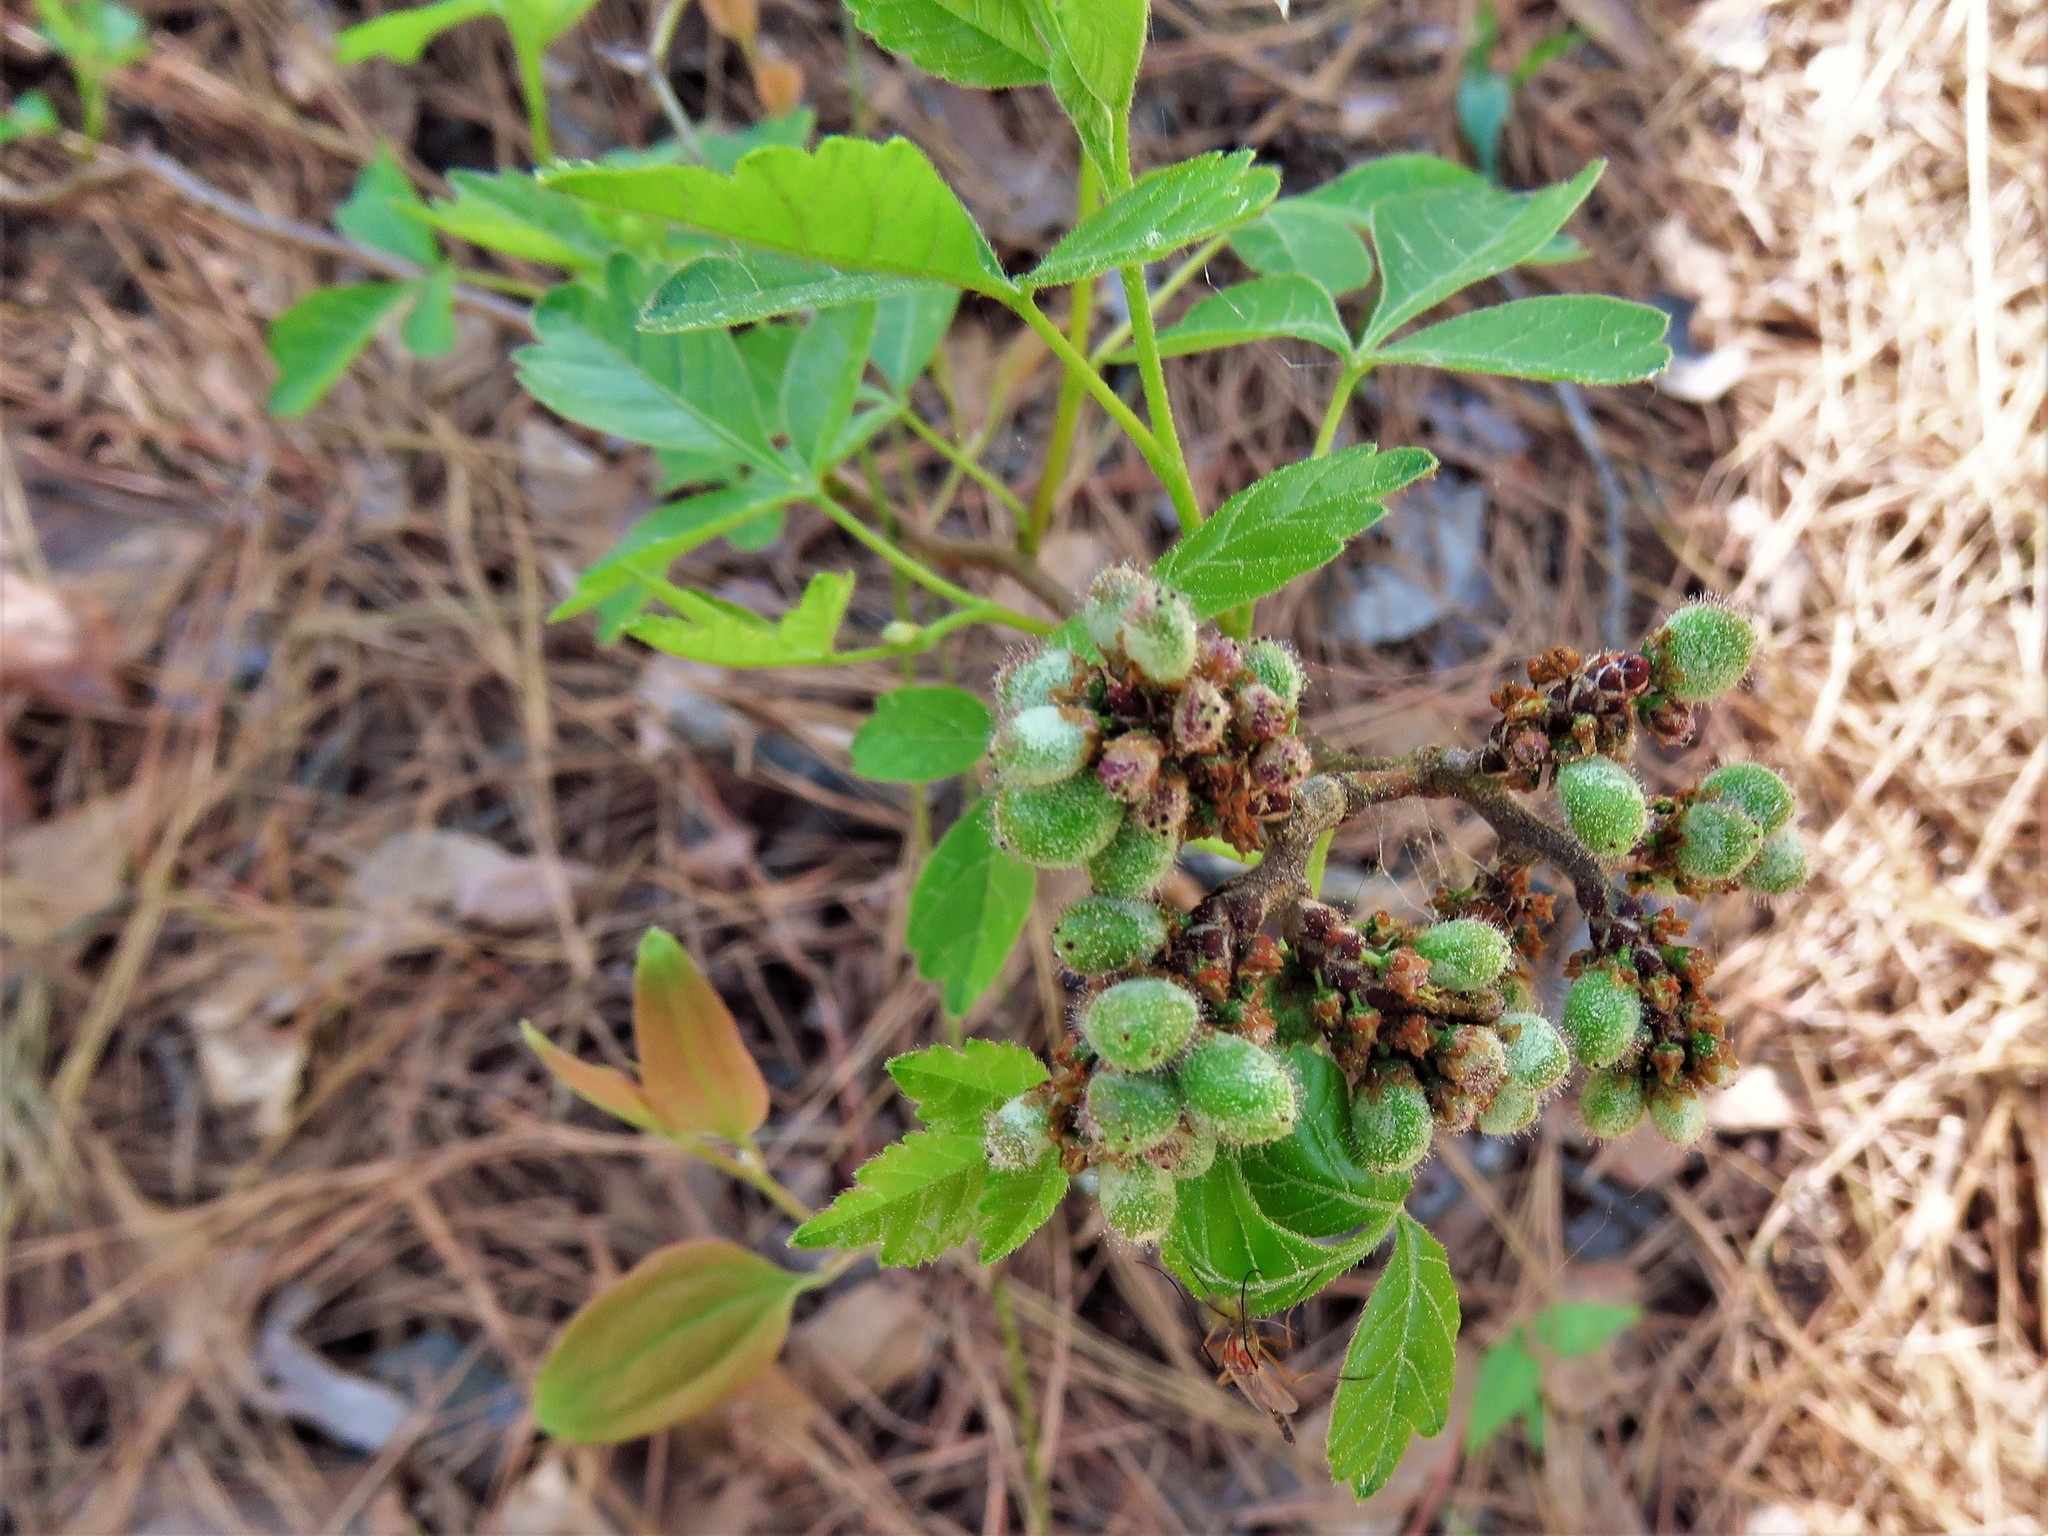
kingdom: Plantae
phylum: Tracheophyta
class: Magnoliopsida
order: Sapindales
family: Anacardiaceae
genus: Rhus
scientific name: Rhus aromatica
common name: Aromatic sumac
